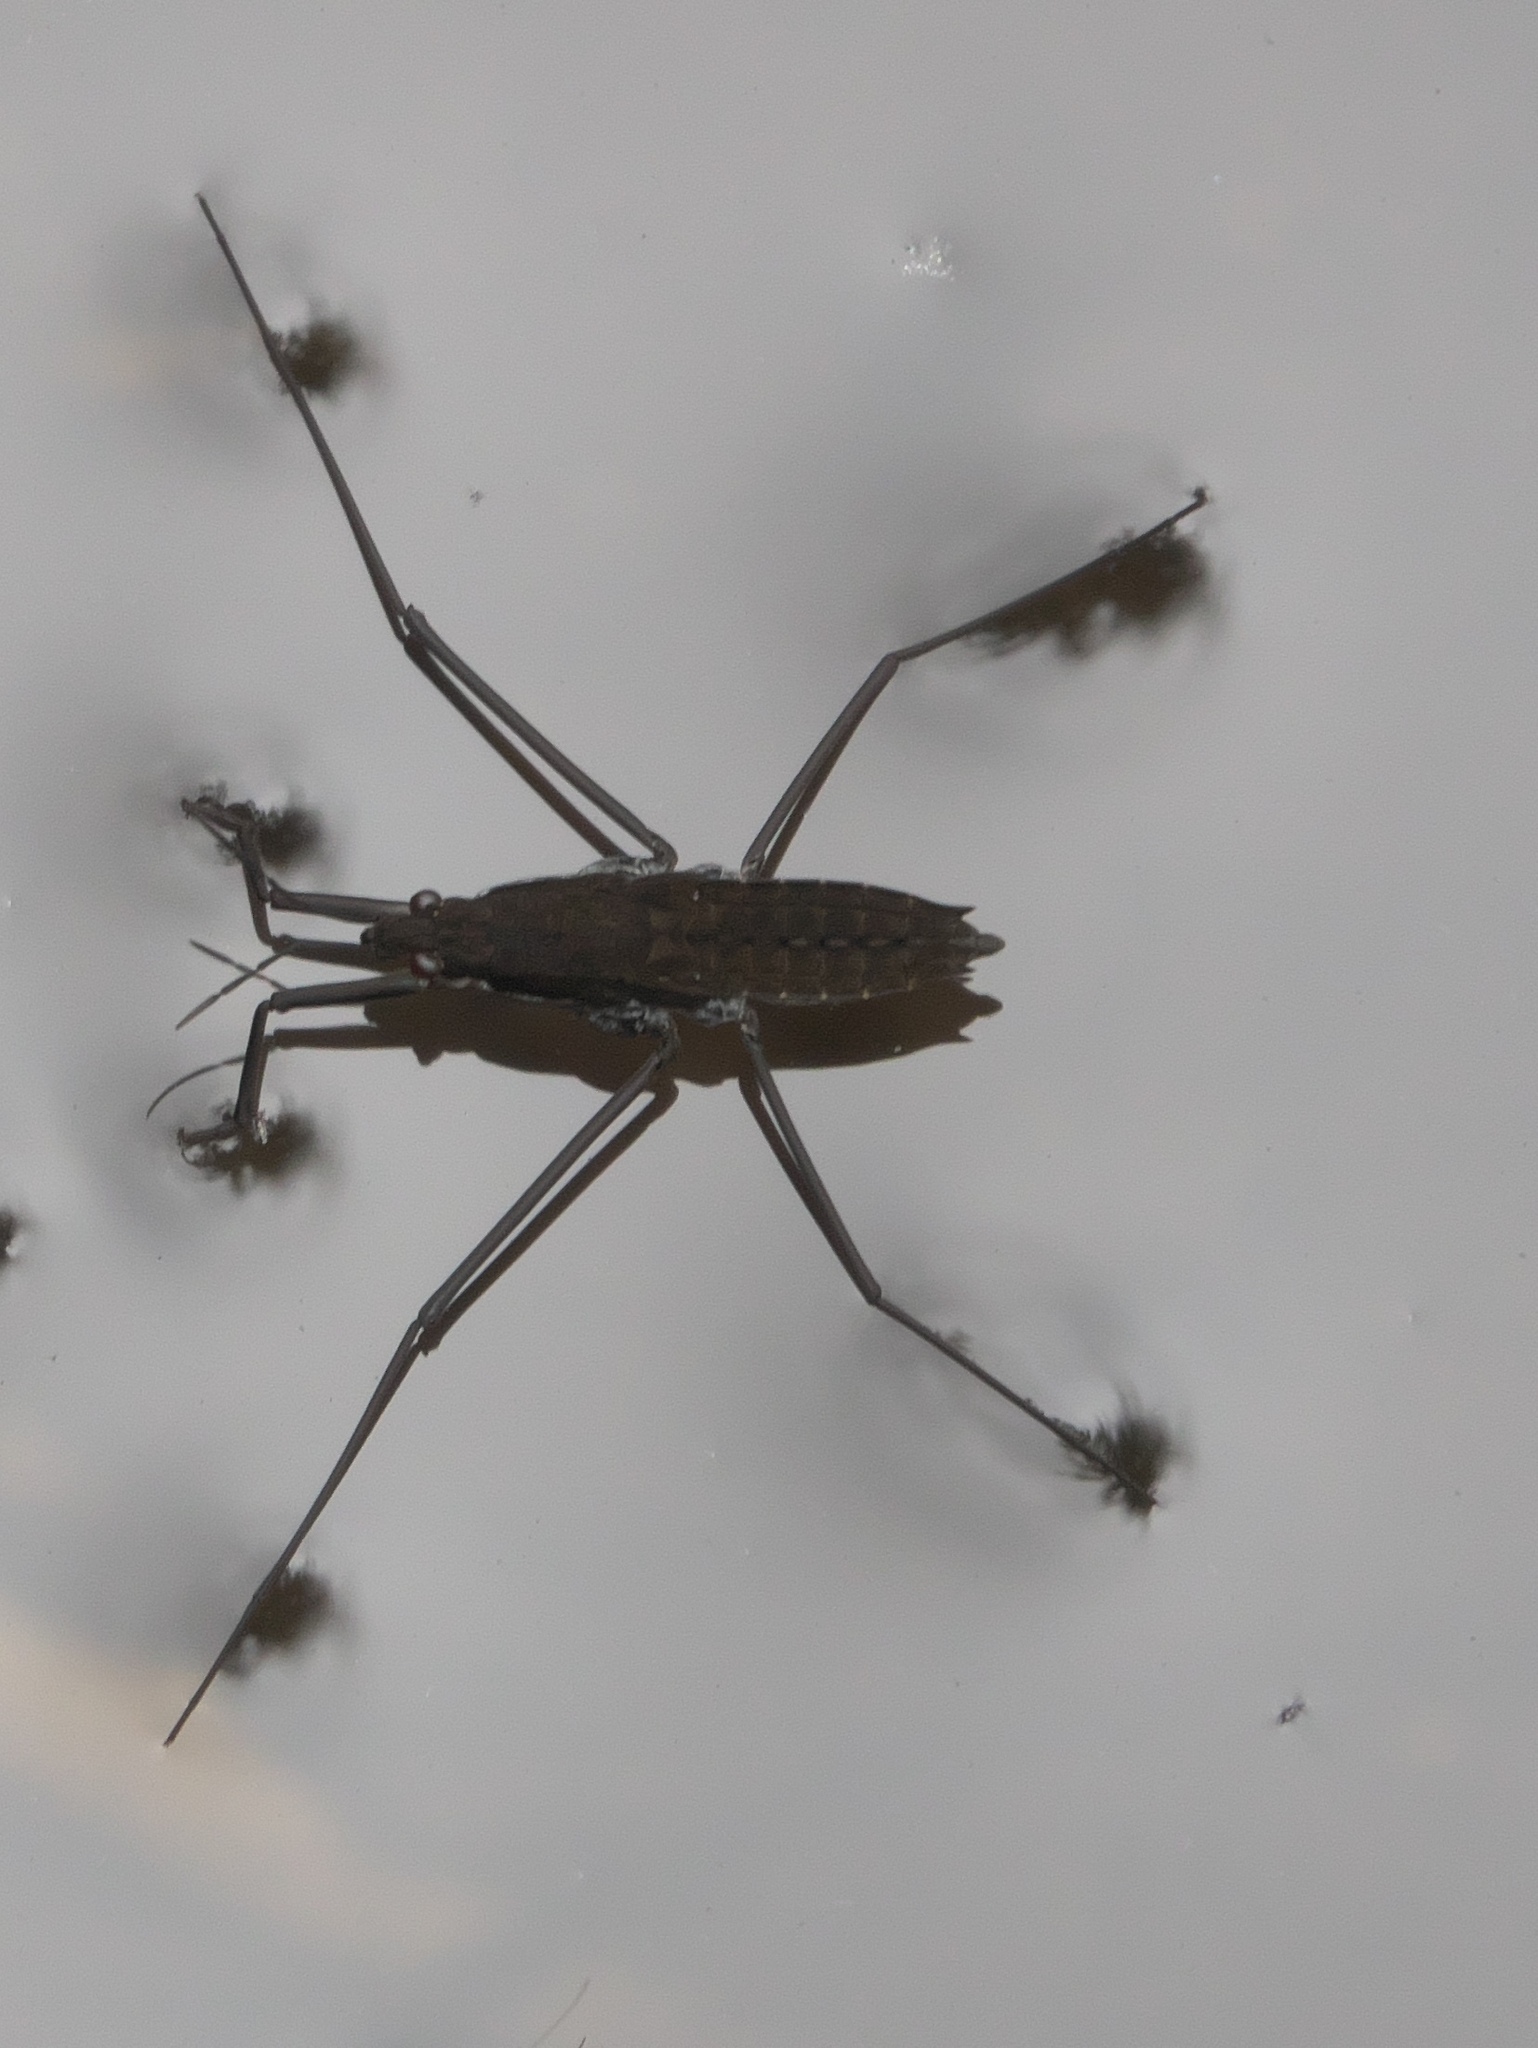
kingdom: Animalia
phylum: Arthropoda
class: Insecta
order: Hemiptera
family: Gerridae
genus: Aquarius
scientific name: Aquarius remigis
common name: Common water strider
